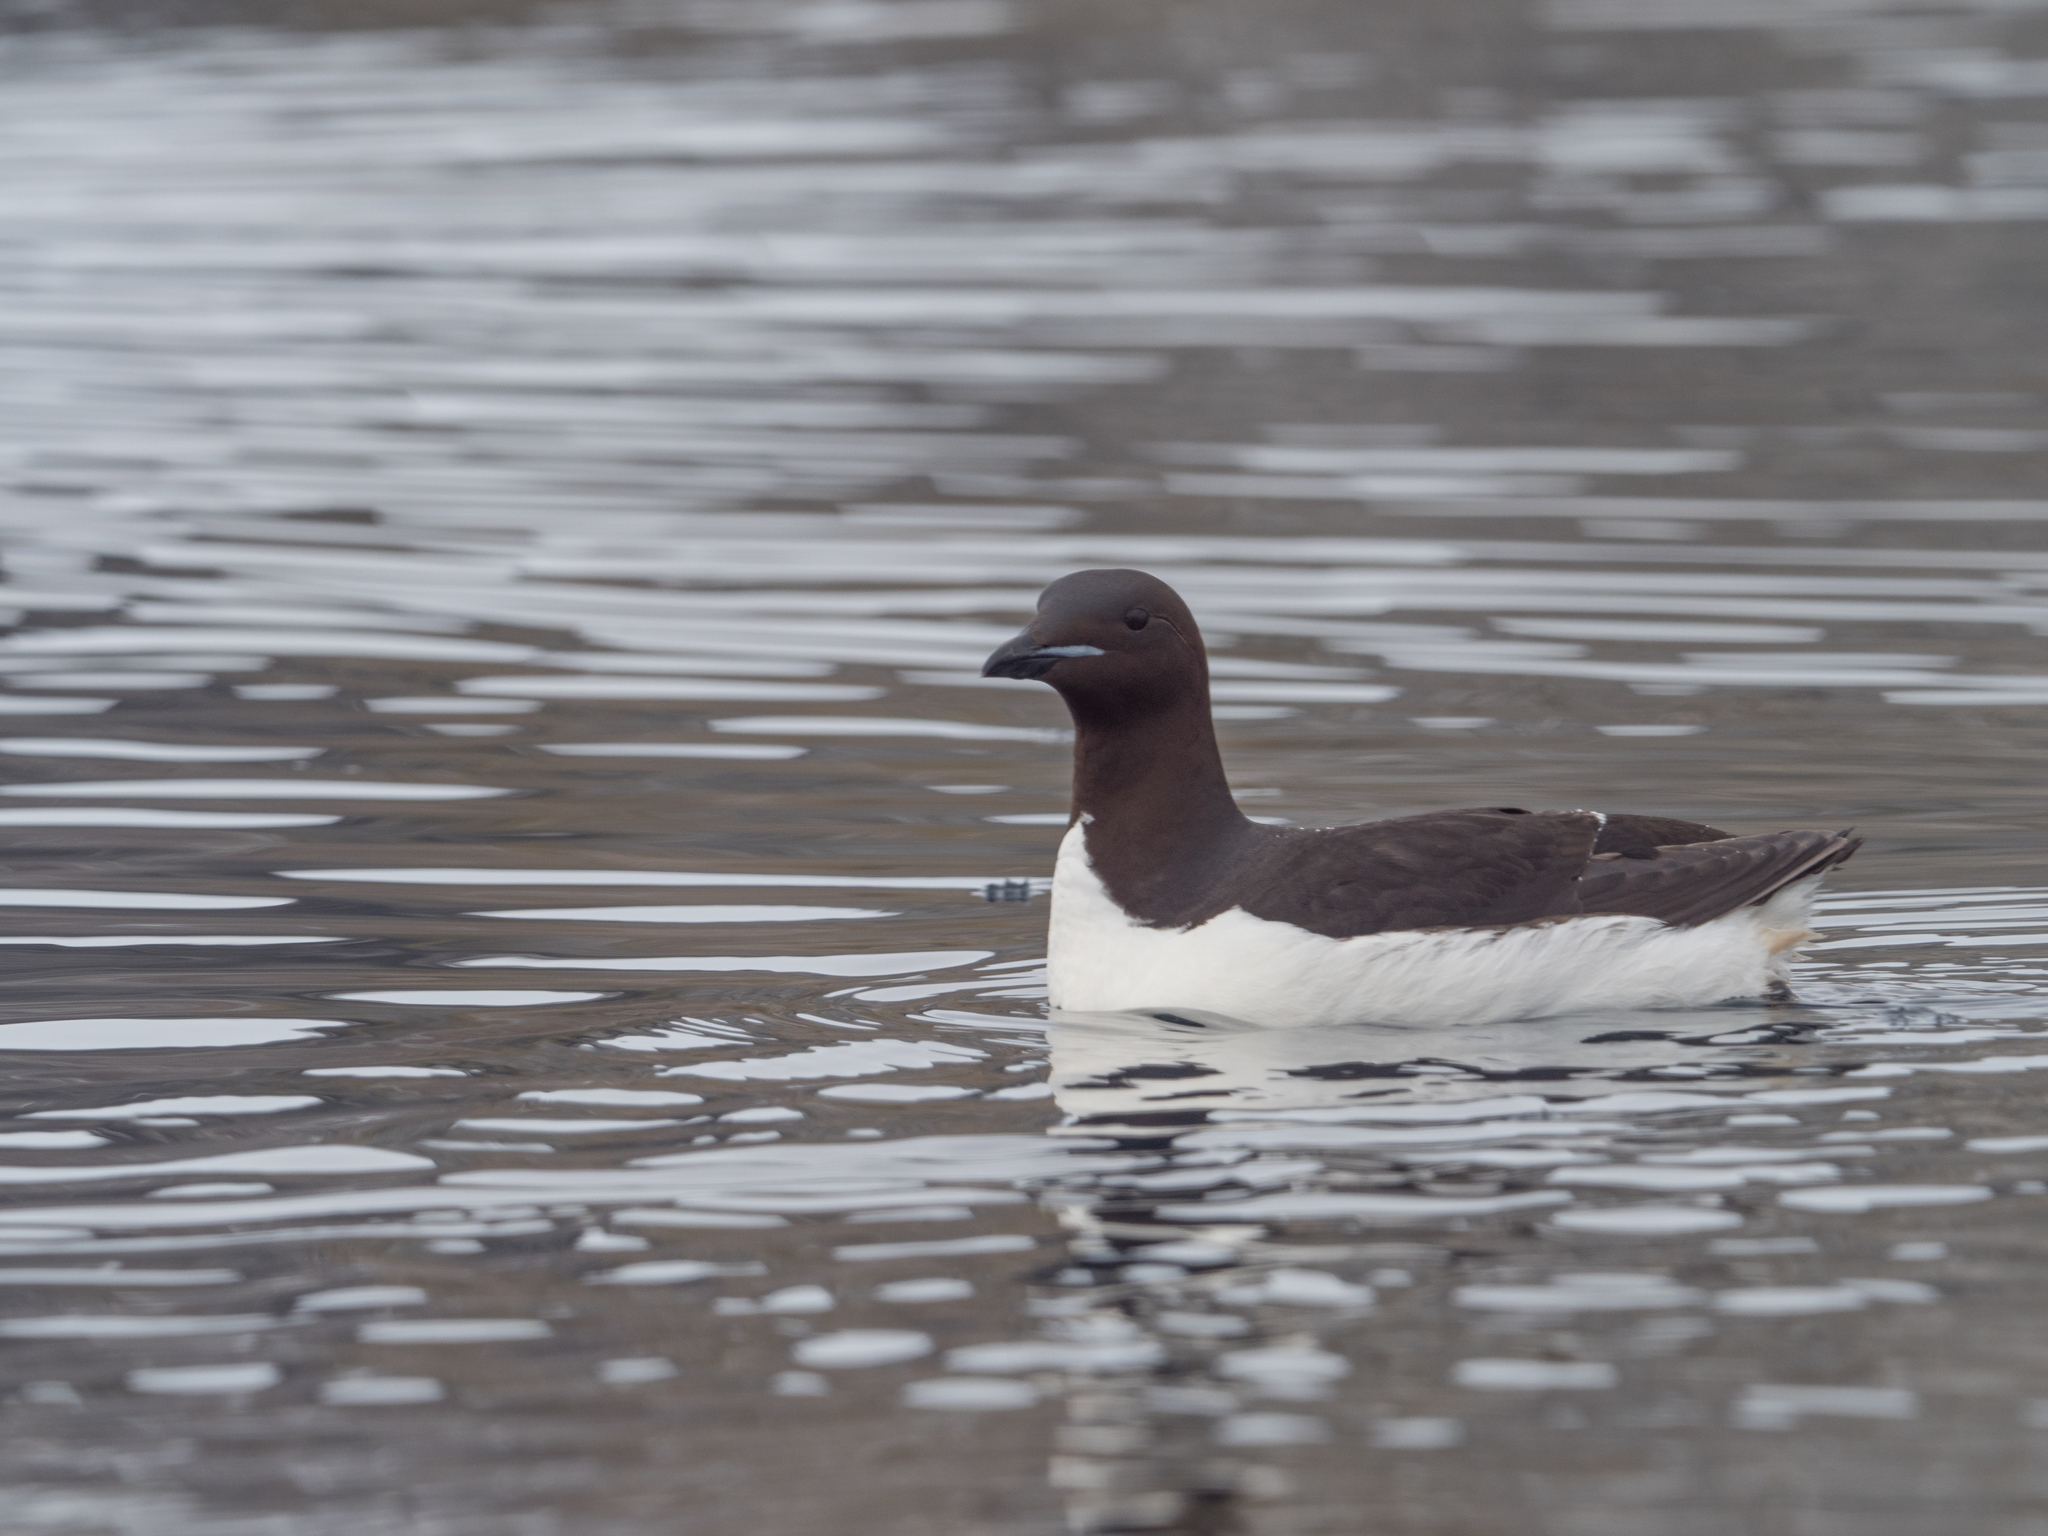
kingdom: Animalia
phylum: Chordata
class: Aves
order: Charadriiformes
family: Alcidae
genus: Uria
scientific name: Uria lomvia
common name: Thick-billed murre
